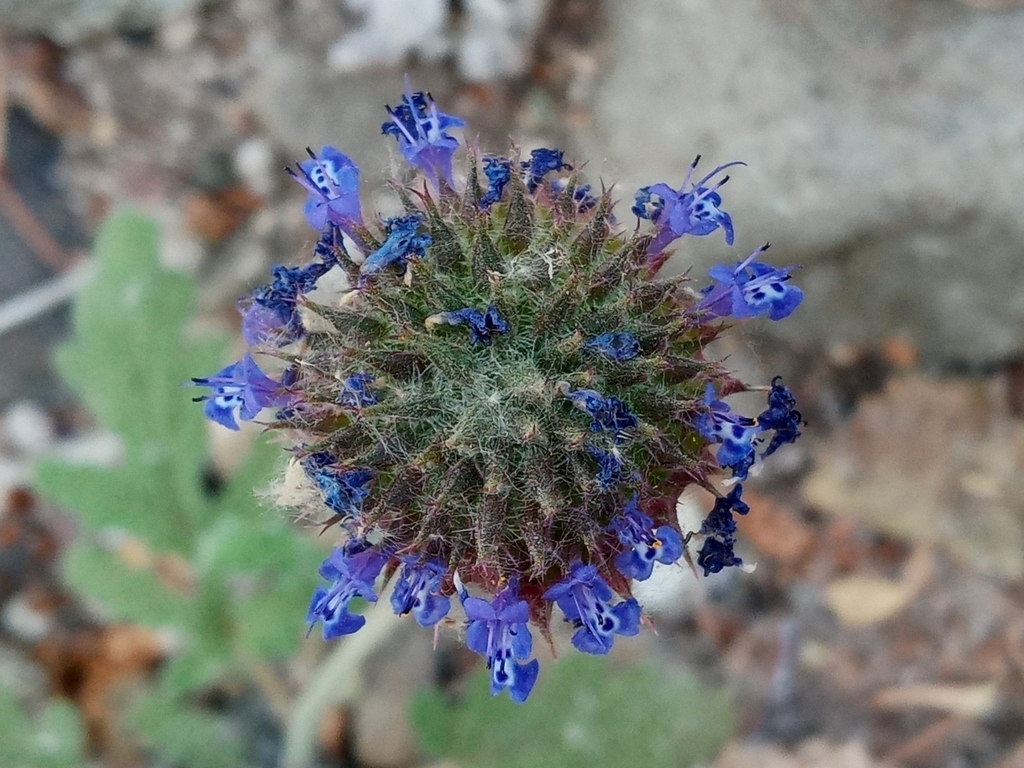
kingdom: Plantae
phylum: Tracheophyta
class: Magnoliopsida
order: Lamiales
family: Lamiaceae
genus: Salvia
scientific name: Salvia columbariae
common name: Chia
